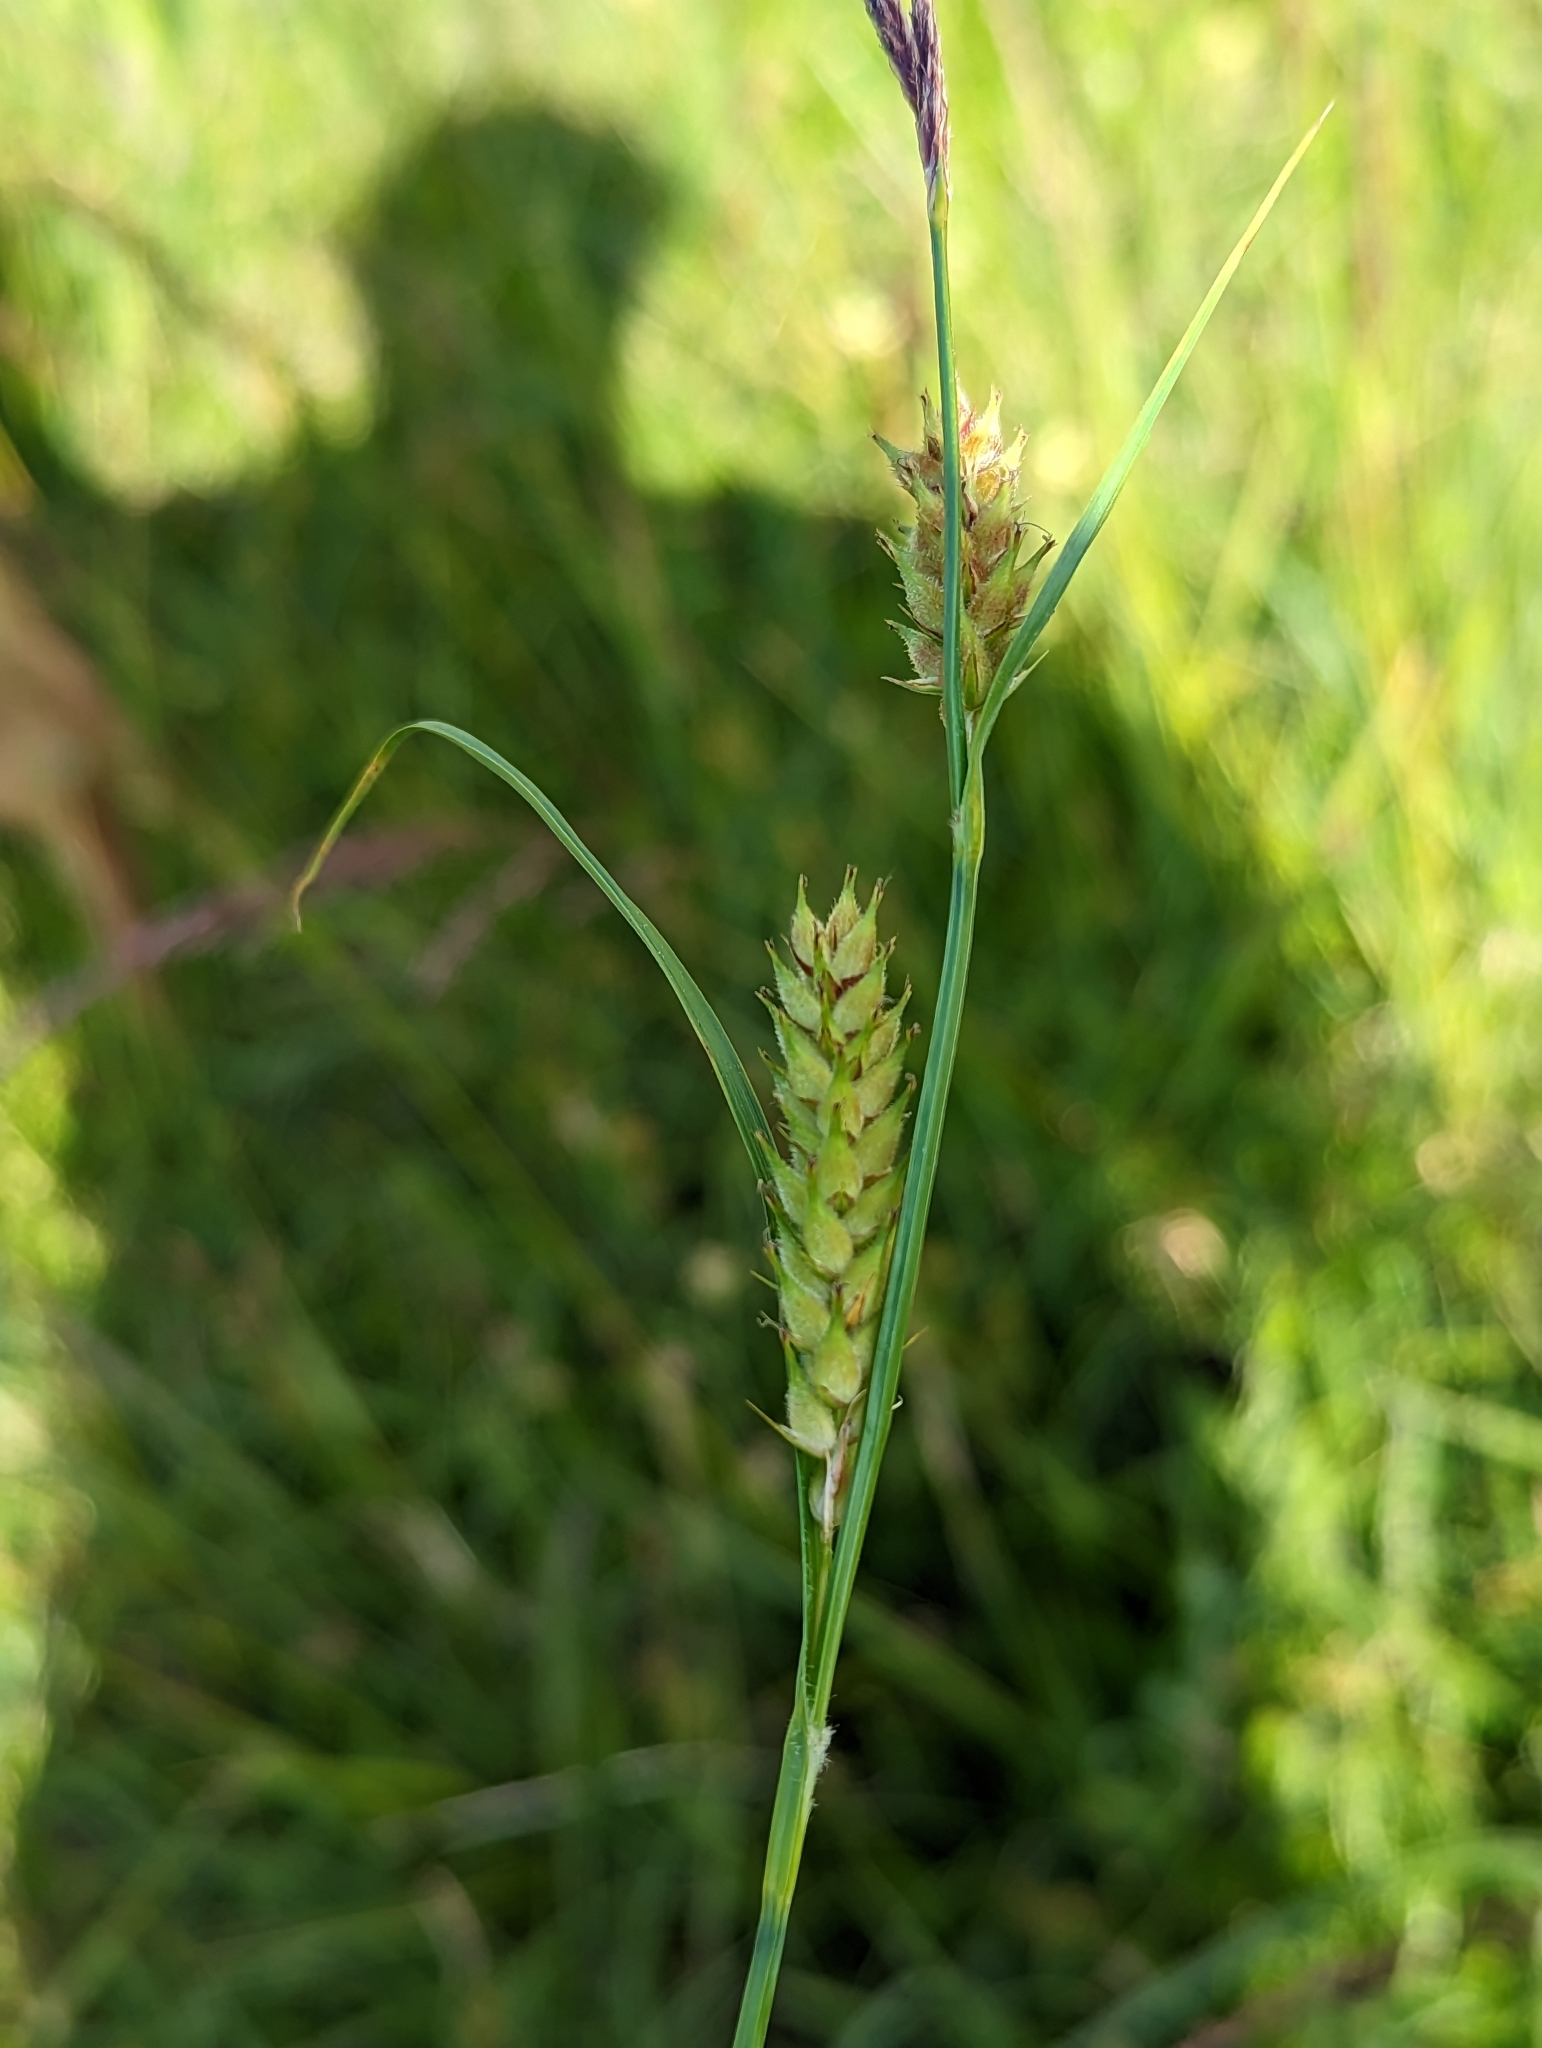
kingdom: Plantae
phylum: Tracheophyta
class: Liliopsida
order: Poales
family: Cyperaceae
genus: Carex
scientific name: Carex hirta
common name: Hairy sedge
